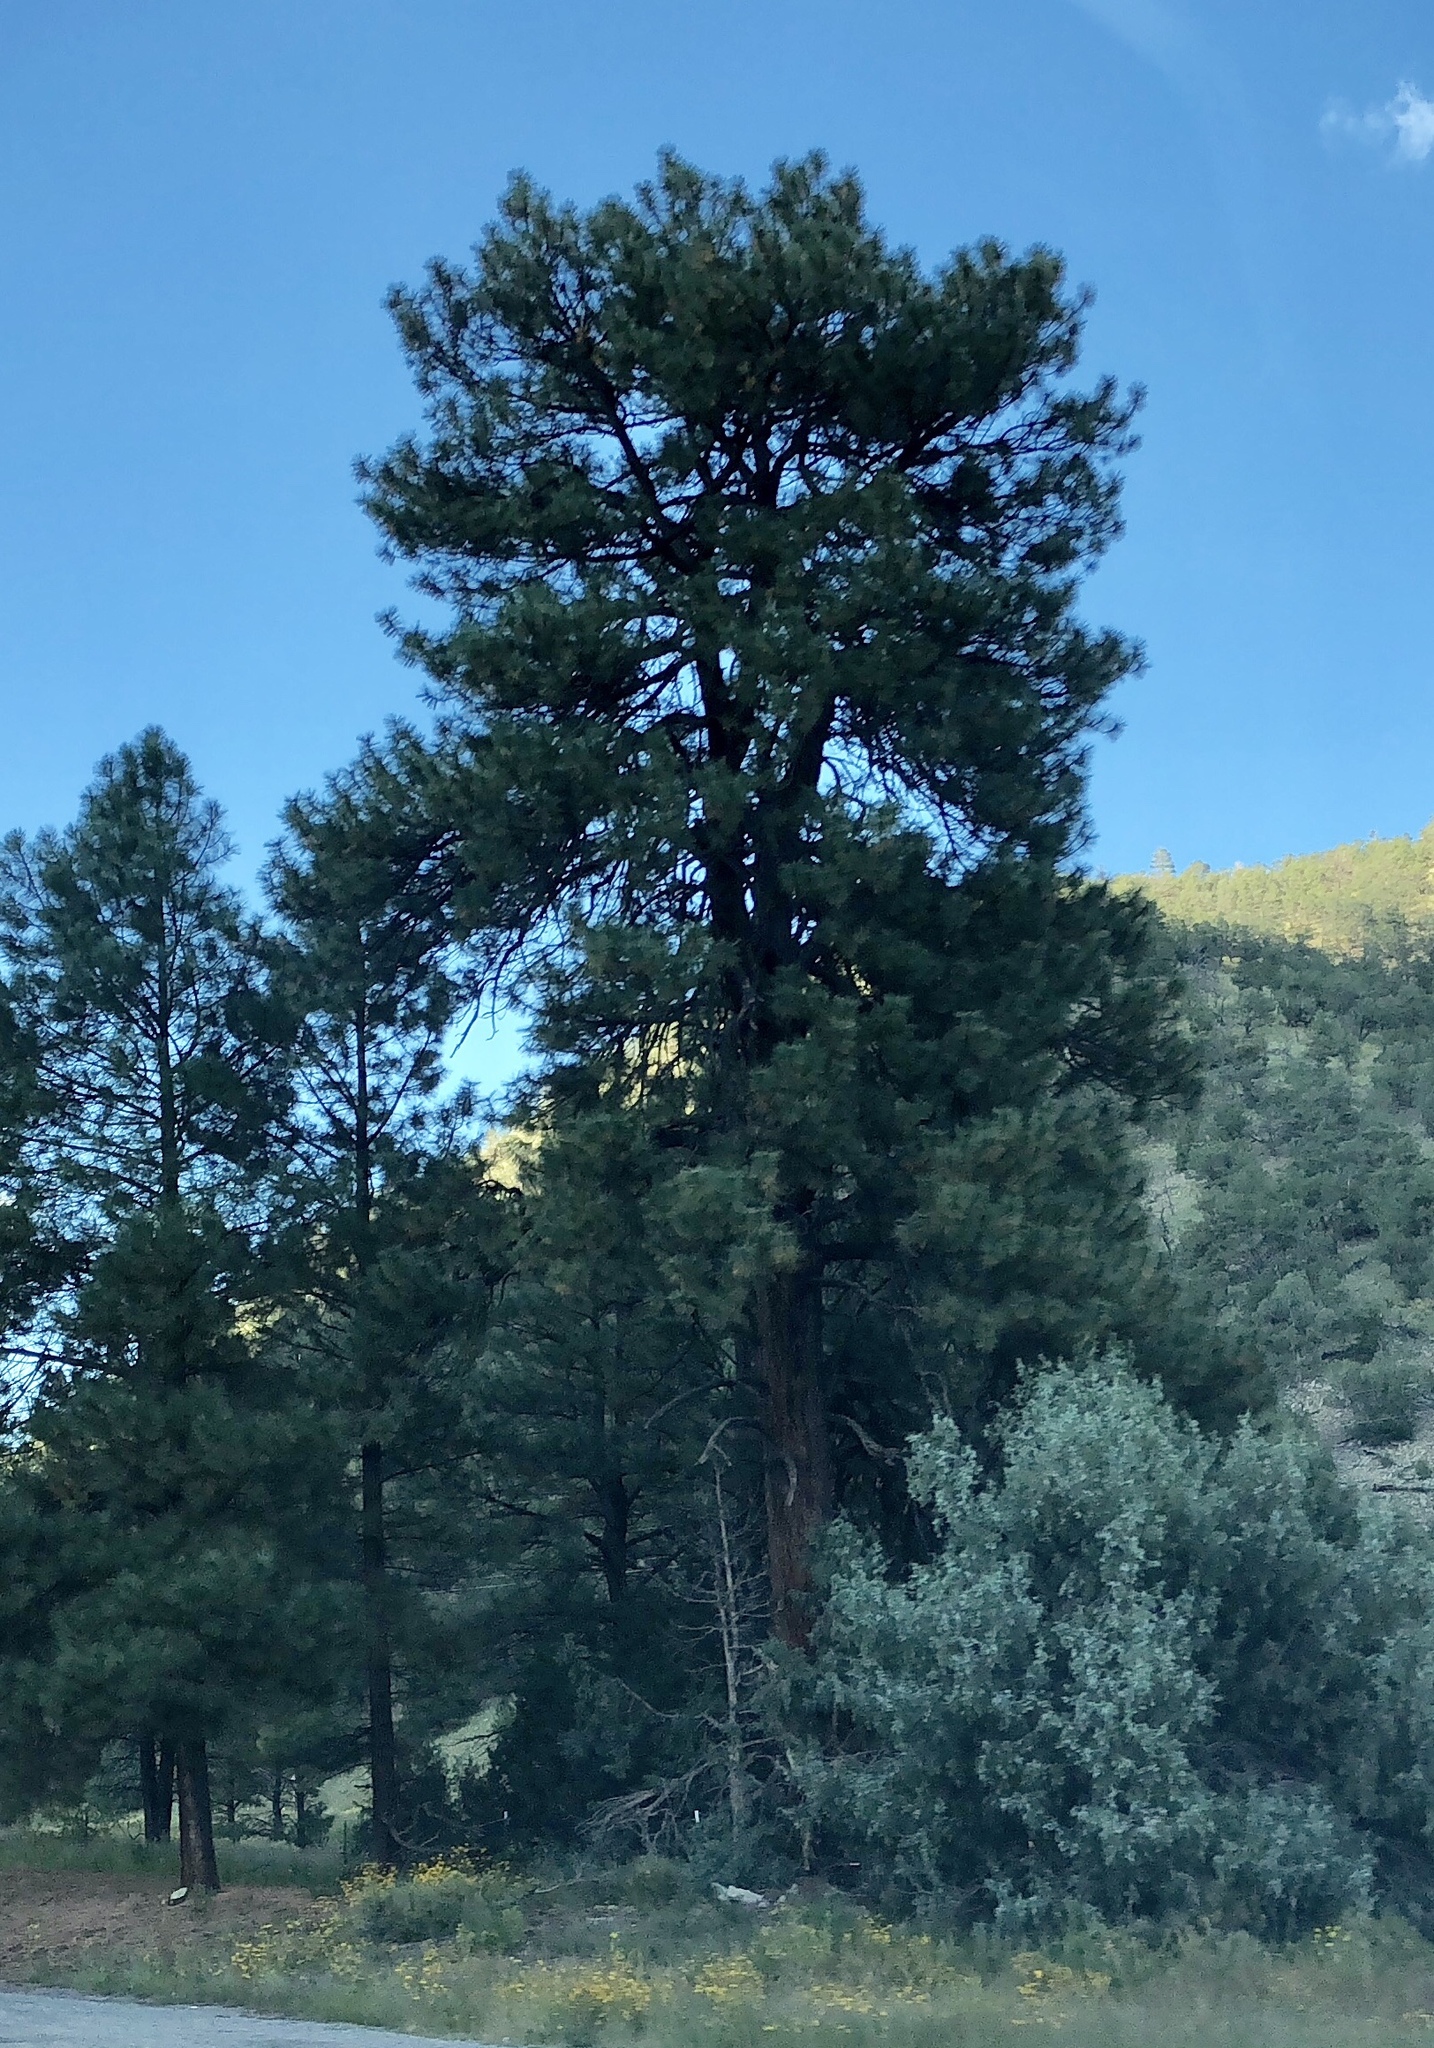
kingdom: Plantae
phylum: Tracheophyta
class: Pinopsida
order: Pinales
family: Pinaceae
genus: Pinus
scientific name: Pinus ponderosa
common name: Western yellow-pine
